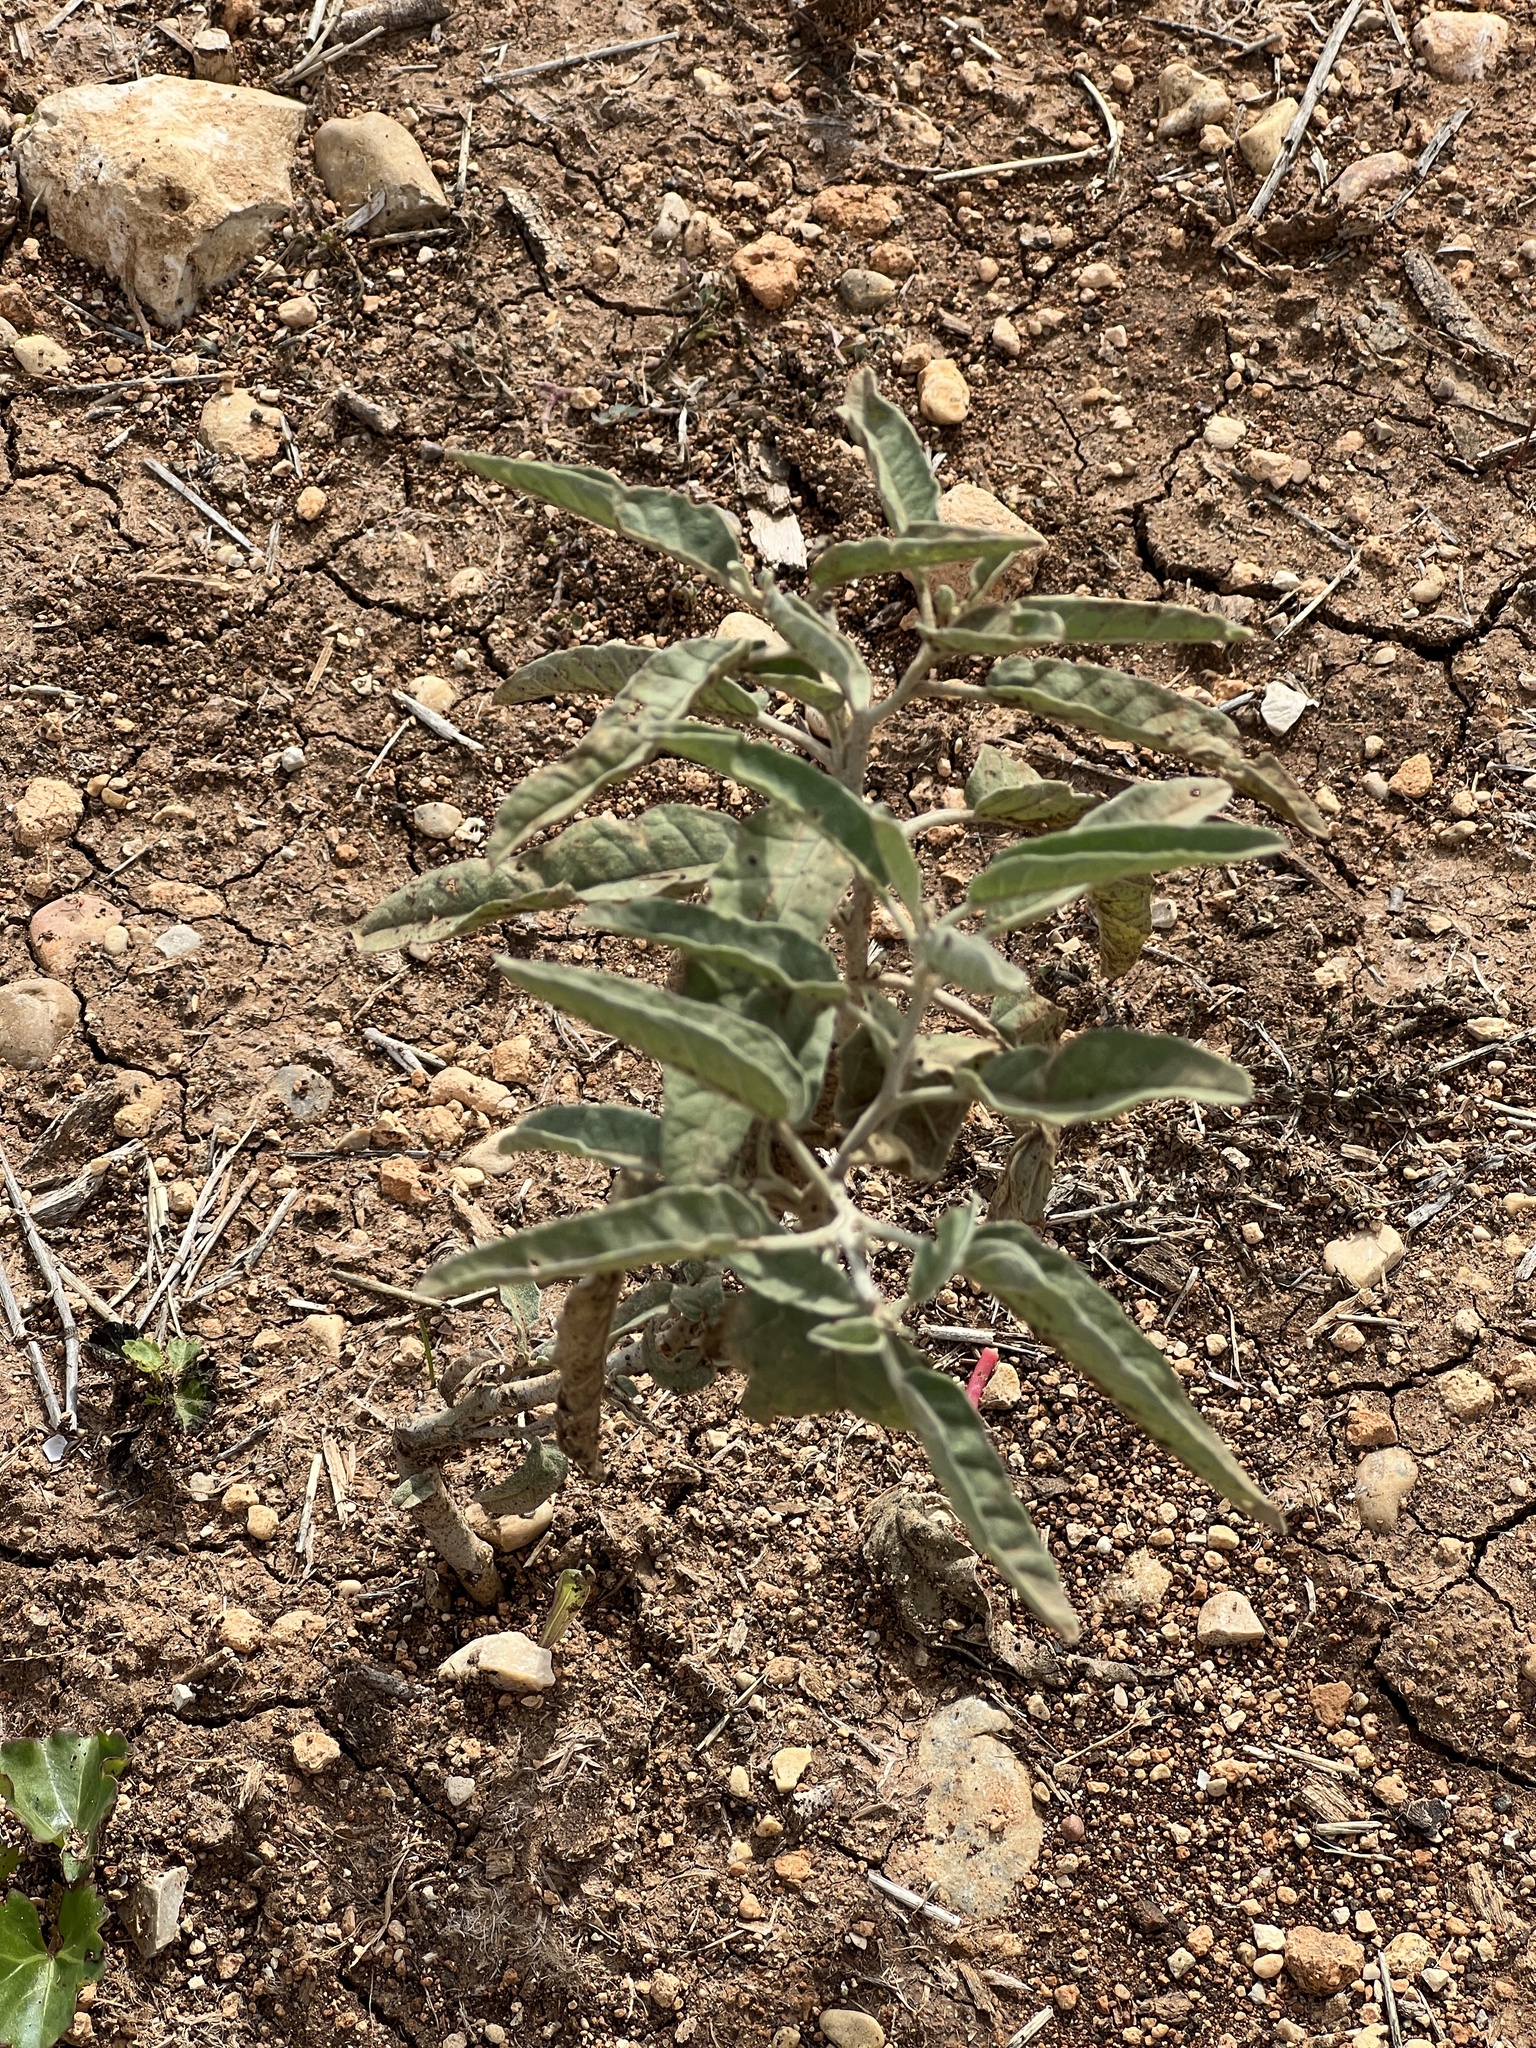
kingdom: Plantae
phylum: Tracheophyta
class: Magnoliopsida
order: Solanales
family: Solanaceae
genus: Solanum
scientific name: Solanum elaeagnifolium
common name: Silverleaf nightshade
